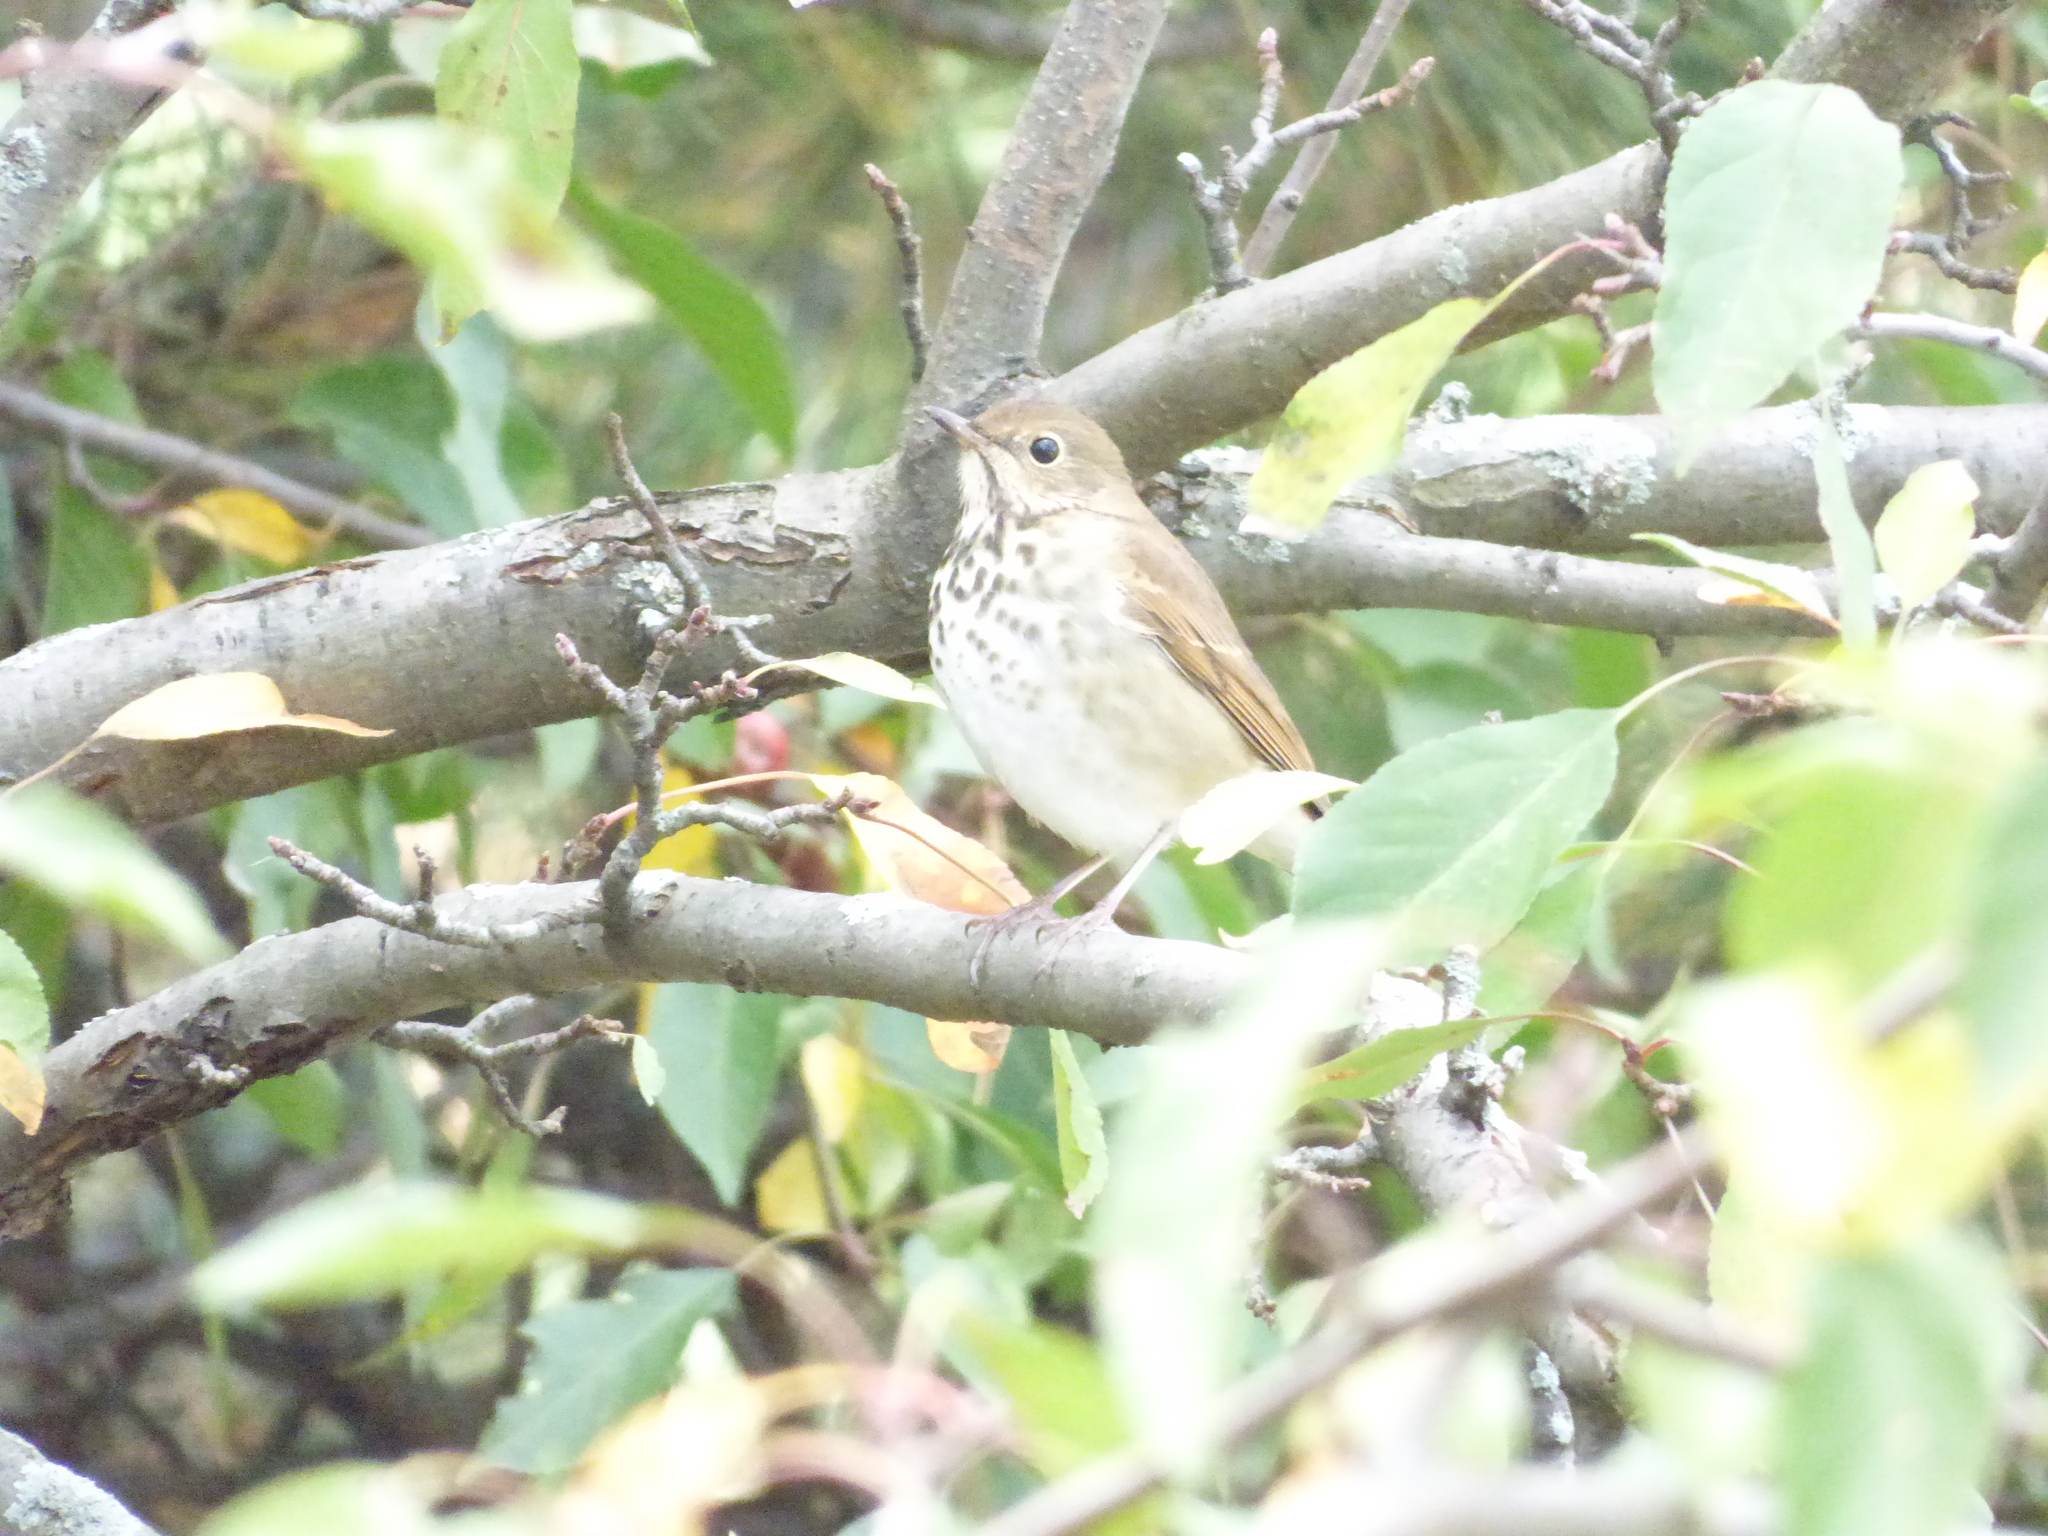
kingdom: Animalia
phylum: Chordata
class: Aves
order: Passeriformes
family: Turdidae
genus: Catharus
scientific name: Catharus guttatus
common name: Hermit thrush
